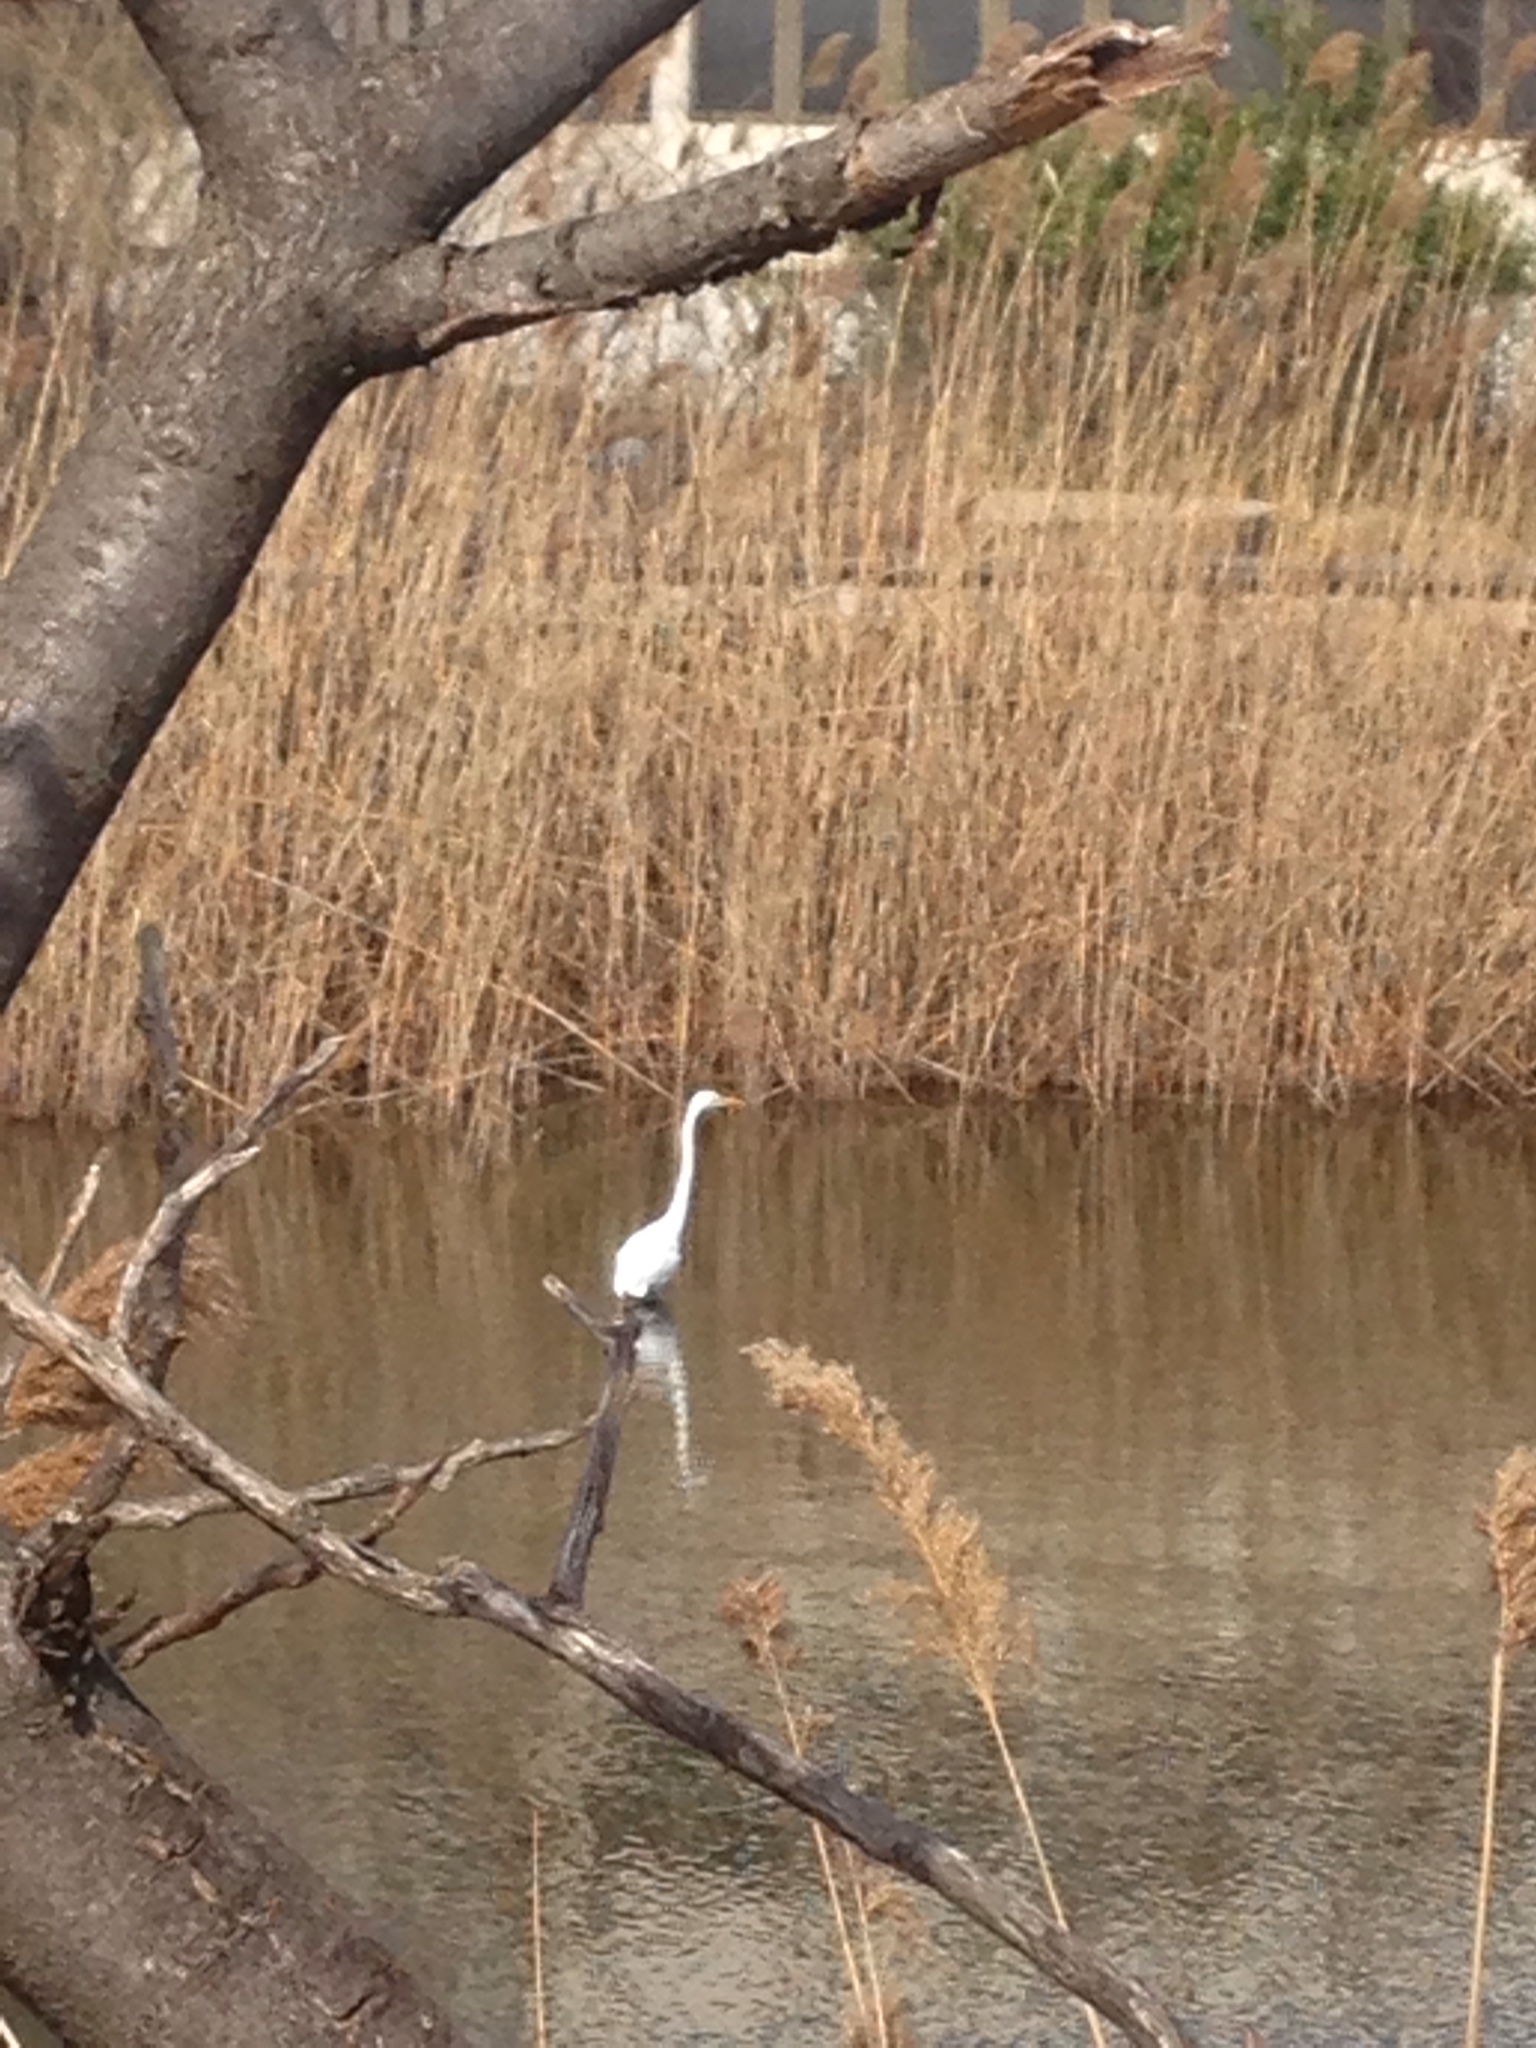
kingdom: Animalia
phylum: Chordata
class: Aves
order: Pelecaniformes
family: Ardeidae
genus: Ardea
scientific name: Ardea alba
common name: Great egret
